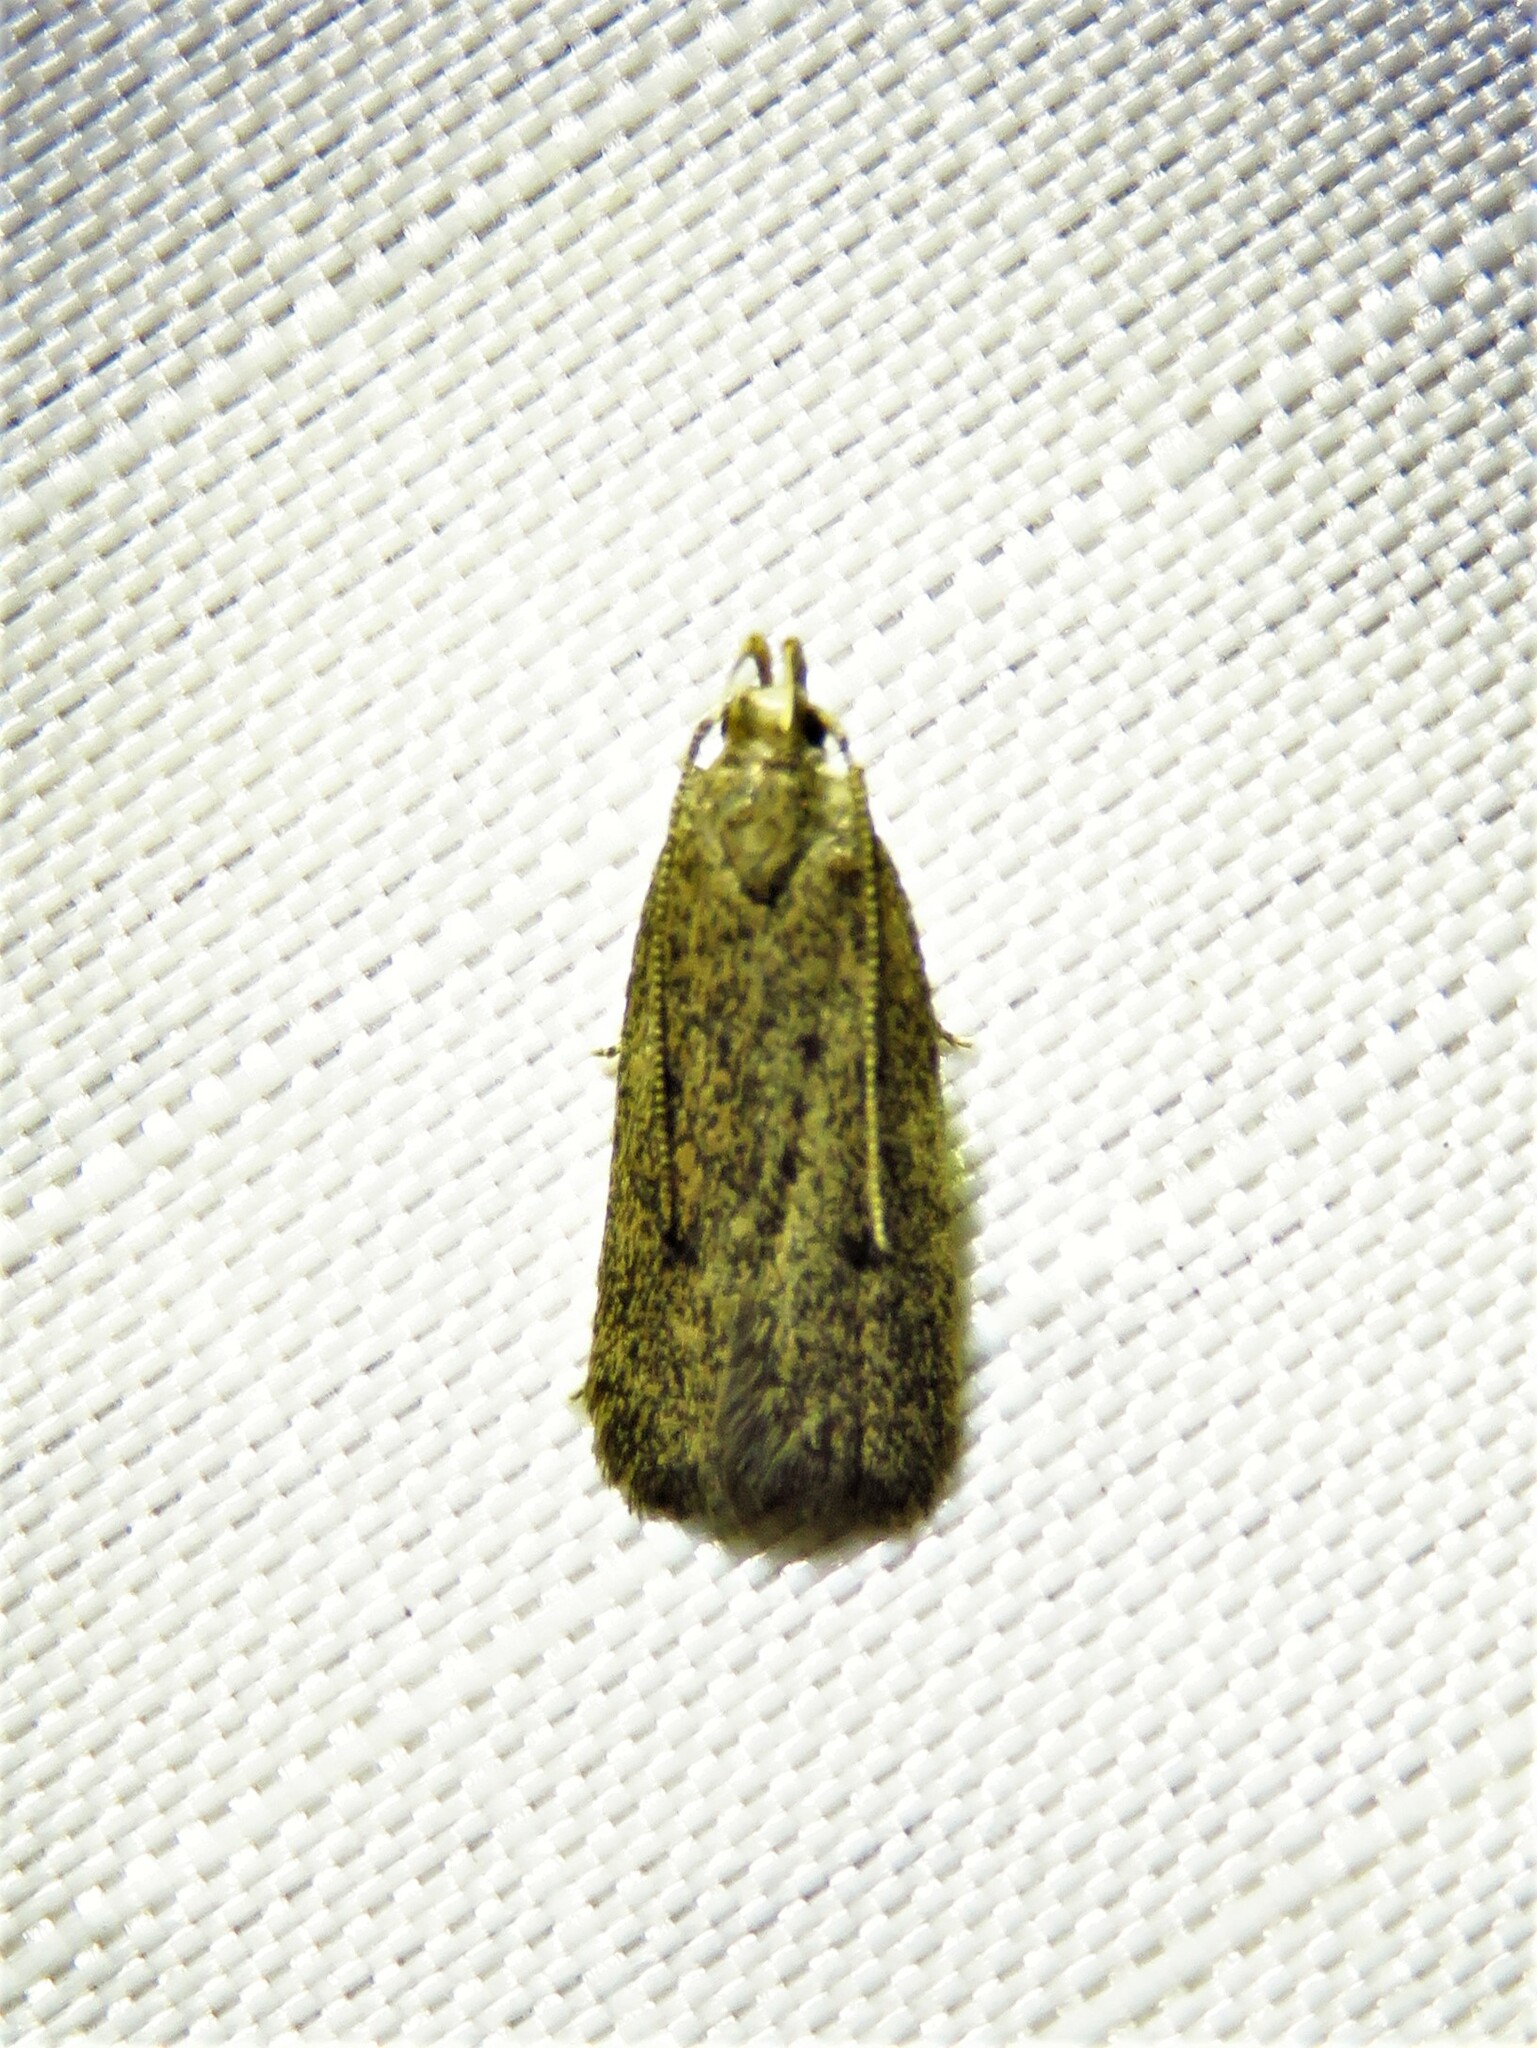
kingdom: Animalia
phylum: Arthropoda
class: Insecta
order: Lepidoptera
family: Autostichidae
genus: Glyphidocera
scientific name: Glyphidocera juniperella
